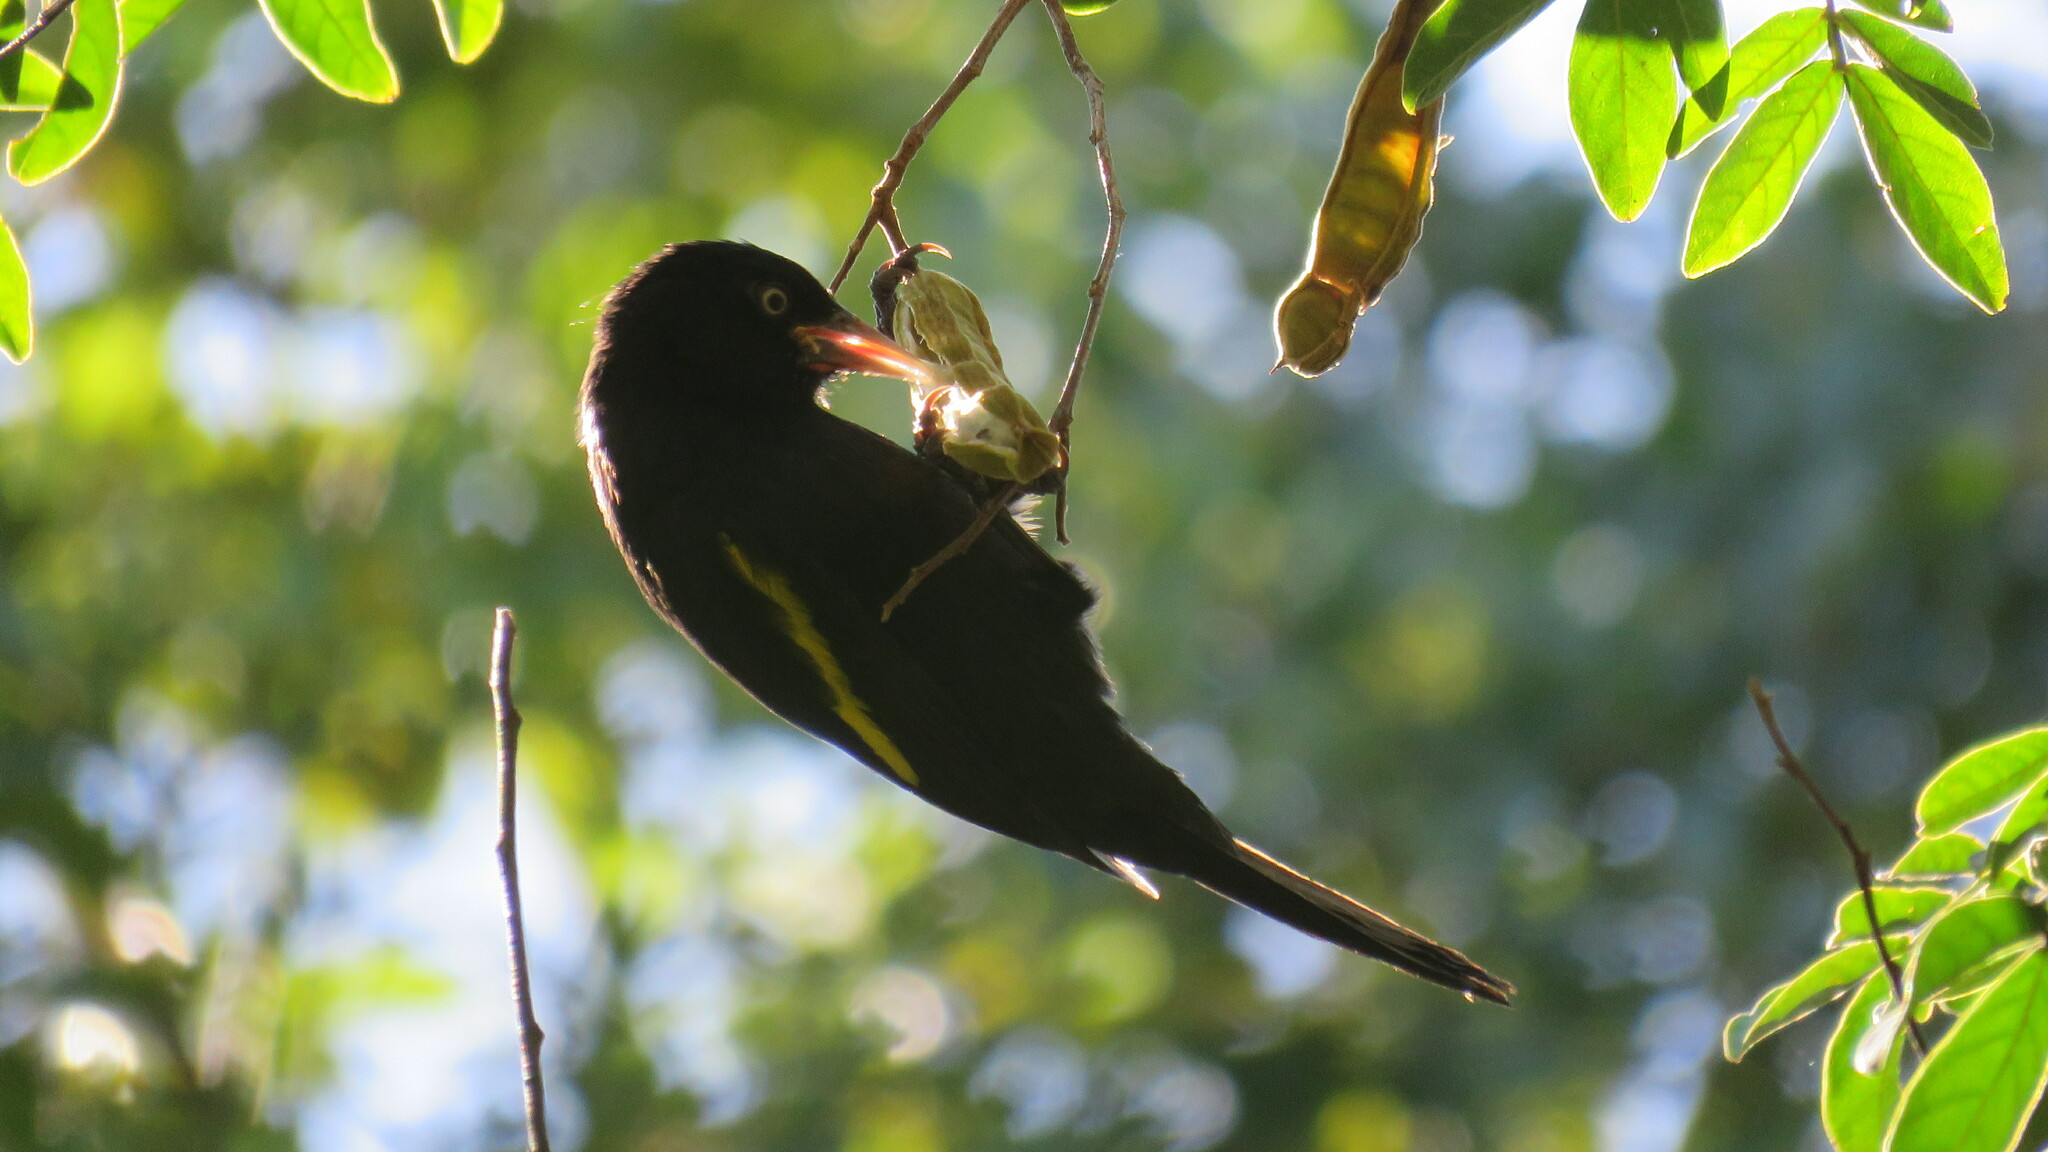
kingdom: Animalia
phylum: Chordata
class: Aves
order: Passeriformes
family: Icteridae
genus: Cacicus
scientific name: Cacicus chrysopterus
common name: Golden-winged cacique
